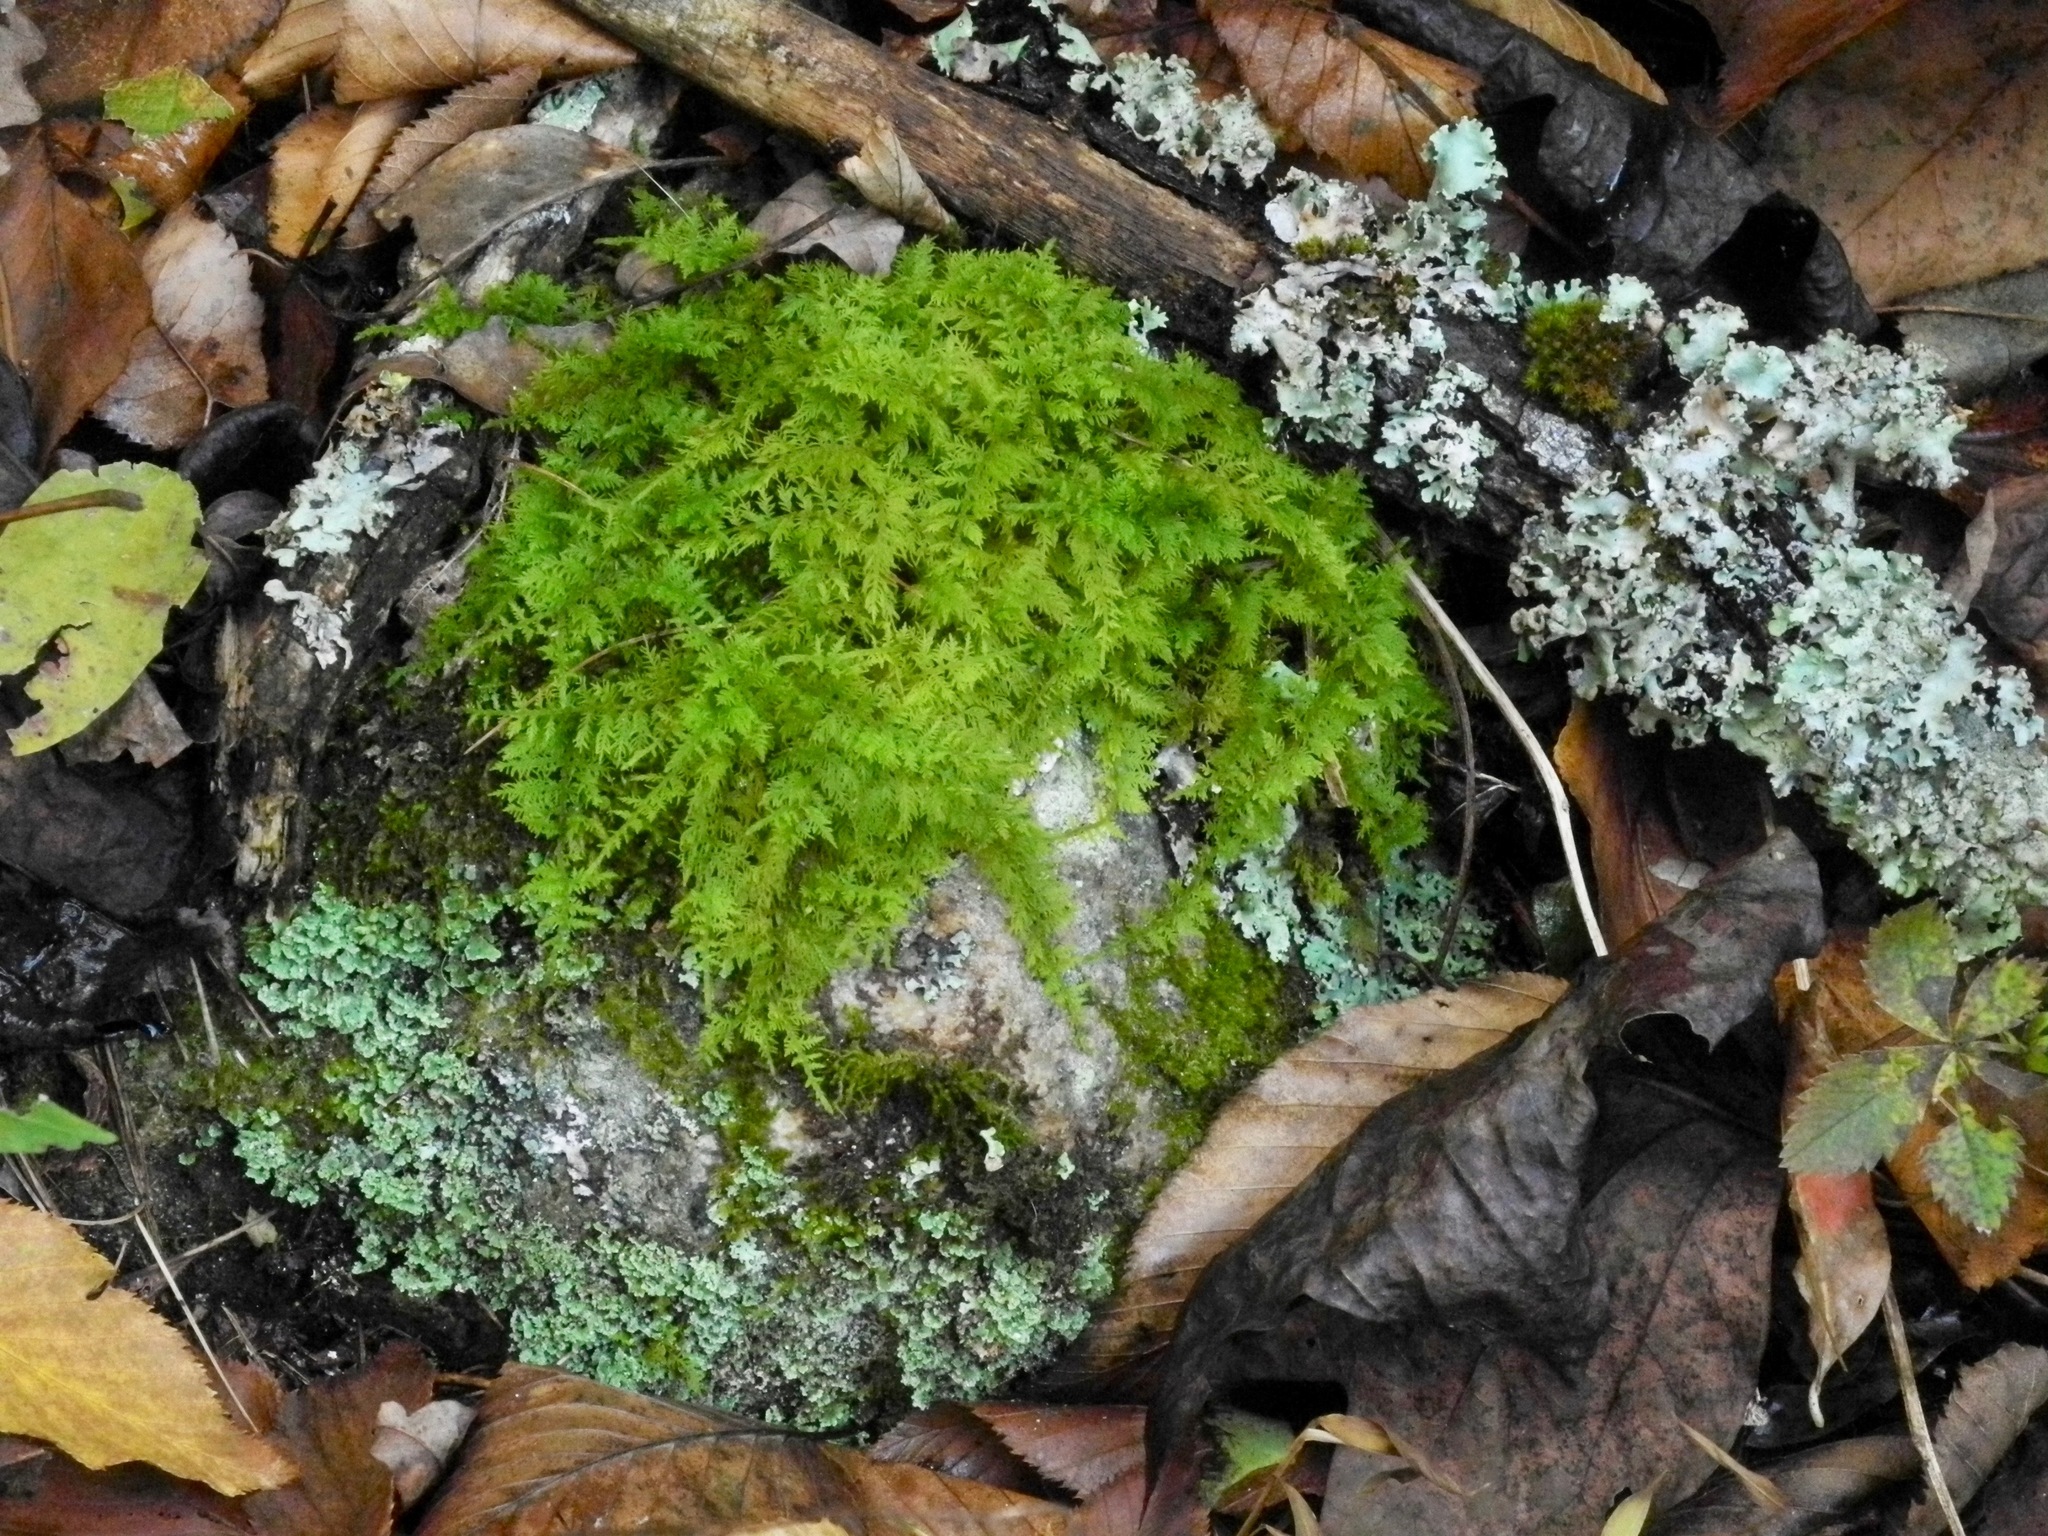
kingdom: Plantae
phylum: Bryophyta
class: Bryopsida
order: Hypnales
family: Thuidiaceae
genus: Thuidium
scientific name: Thuidium delicatulum
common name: Delicate fern moss
